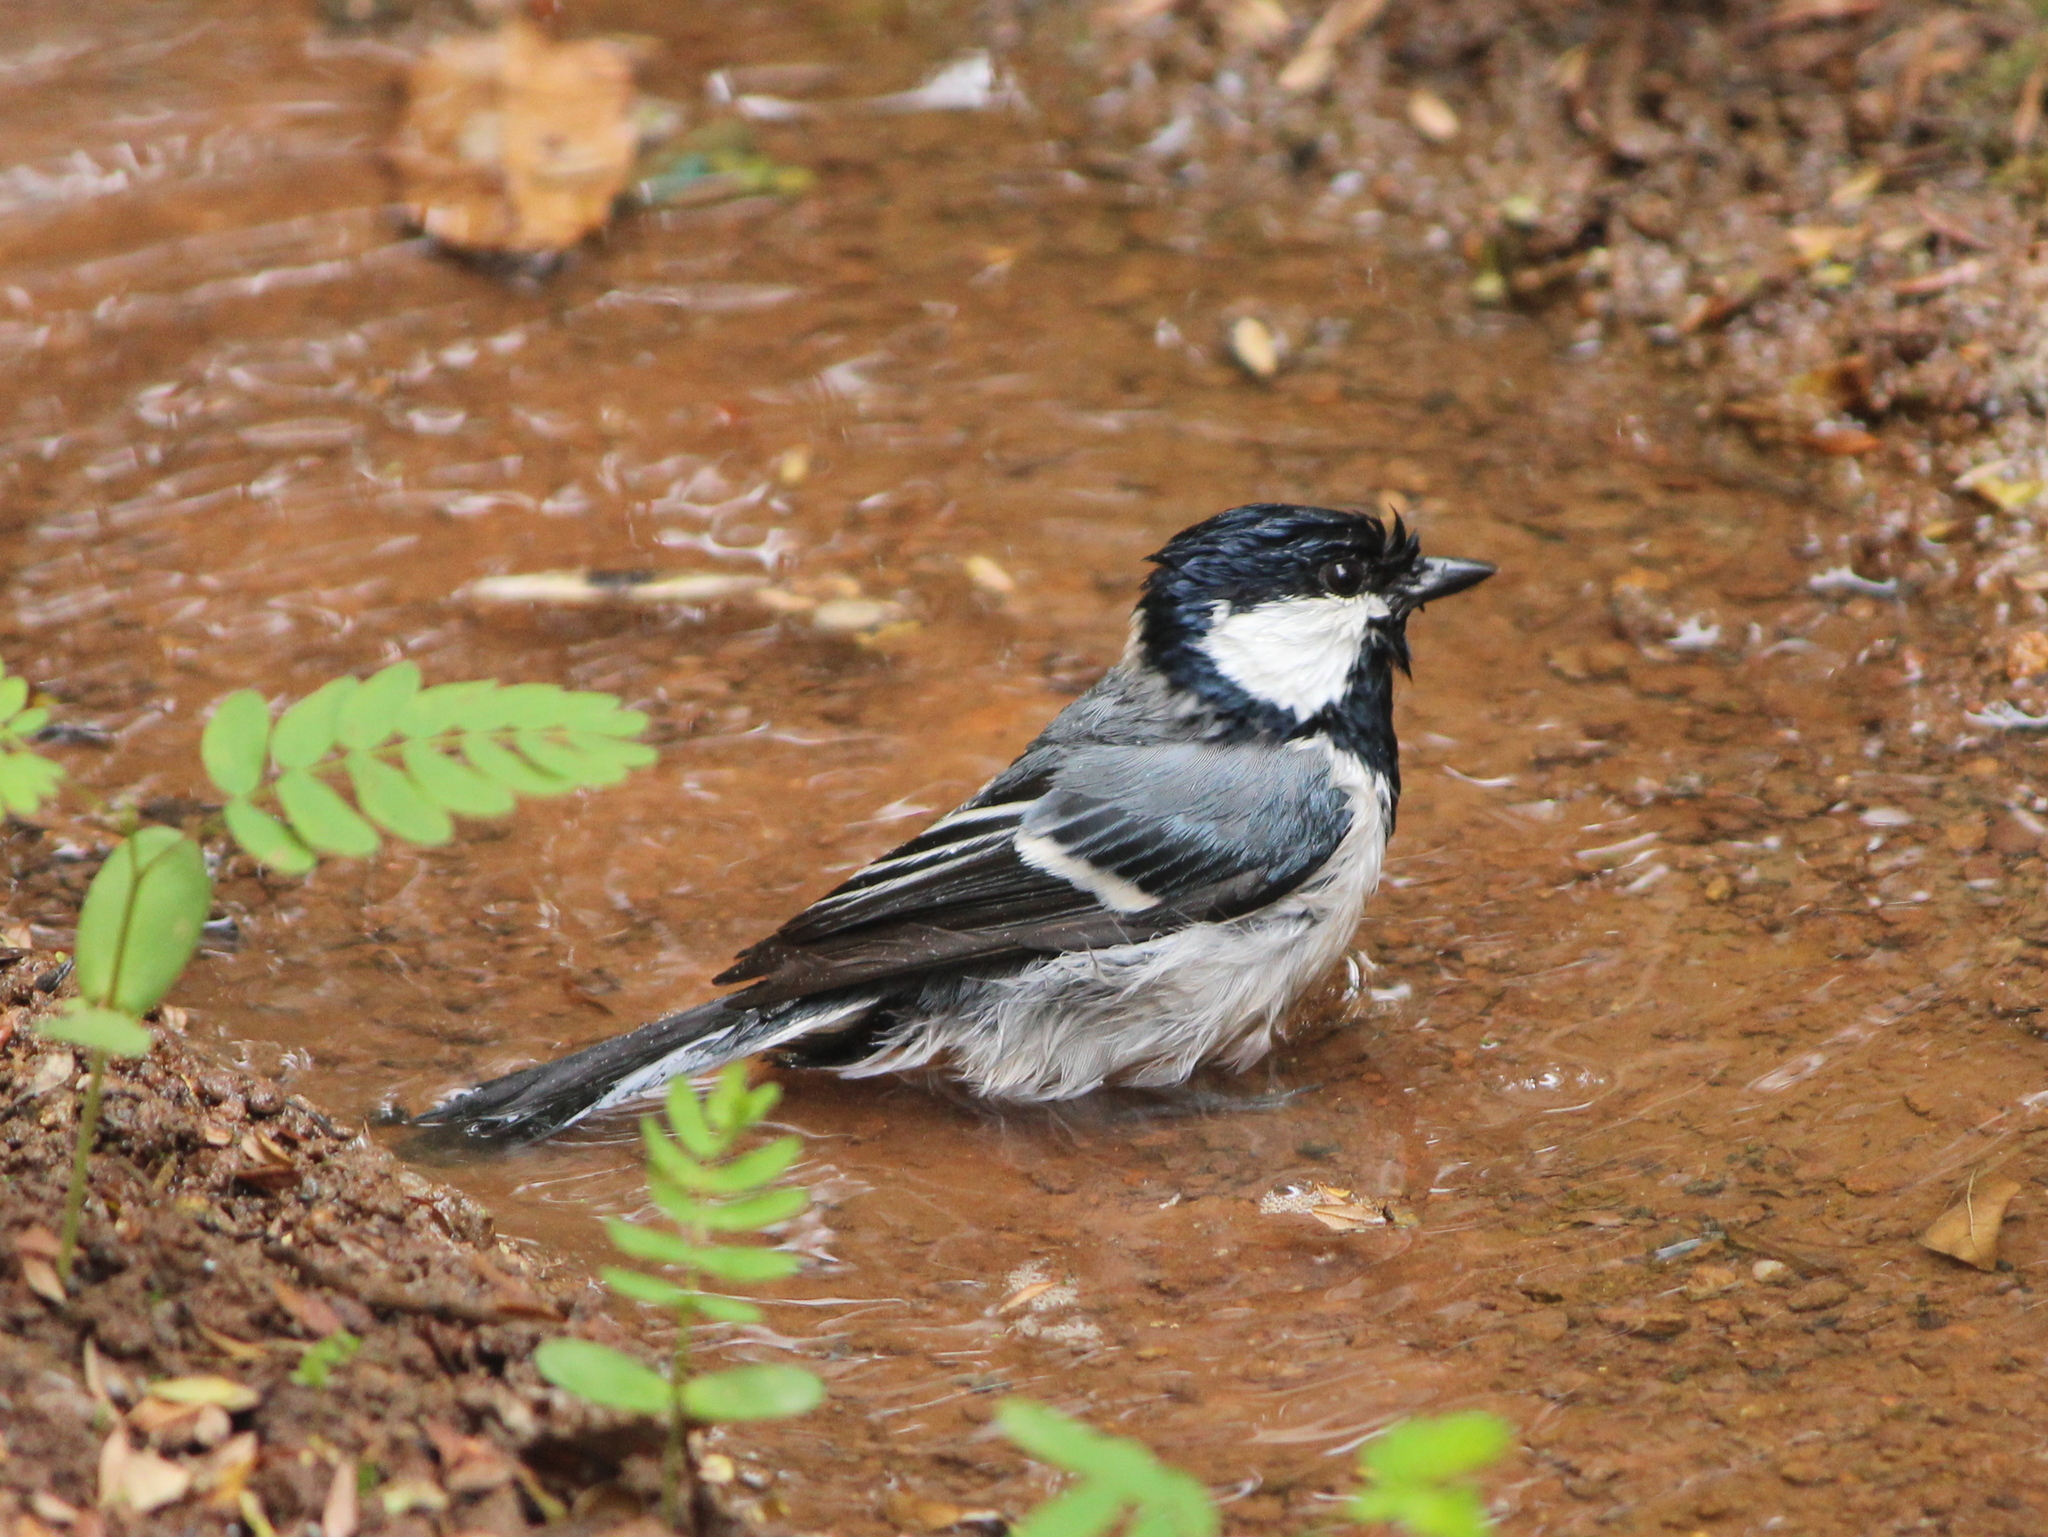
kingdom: Animalia
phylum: Chordata
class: Aves
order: Passeriformes
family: Paridae
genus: Parus
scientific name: Parus cinereus
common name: Cinereous tit
